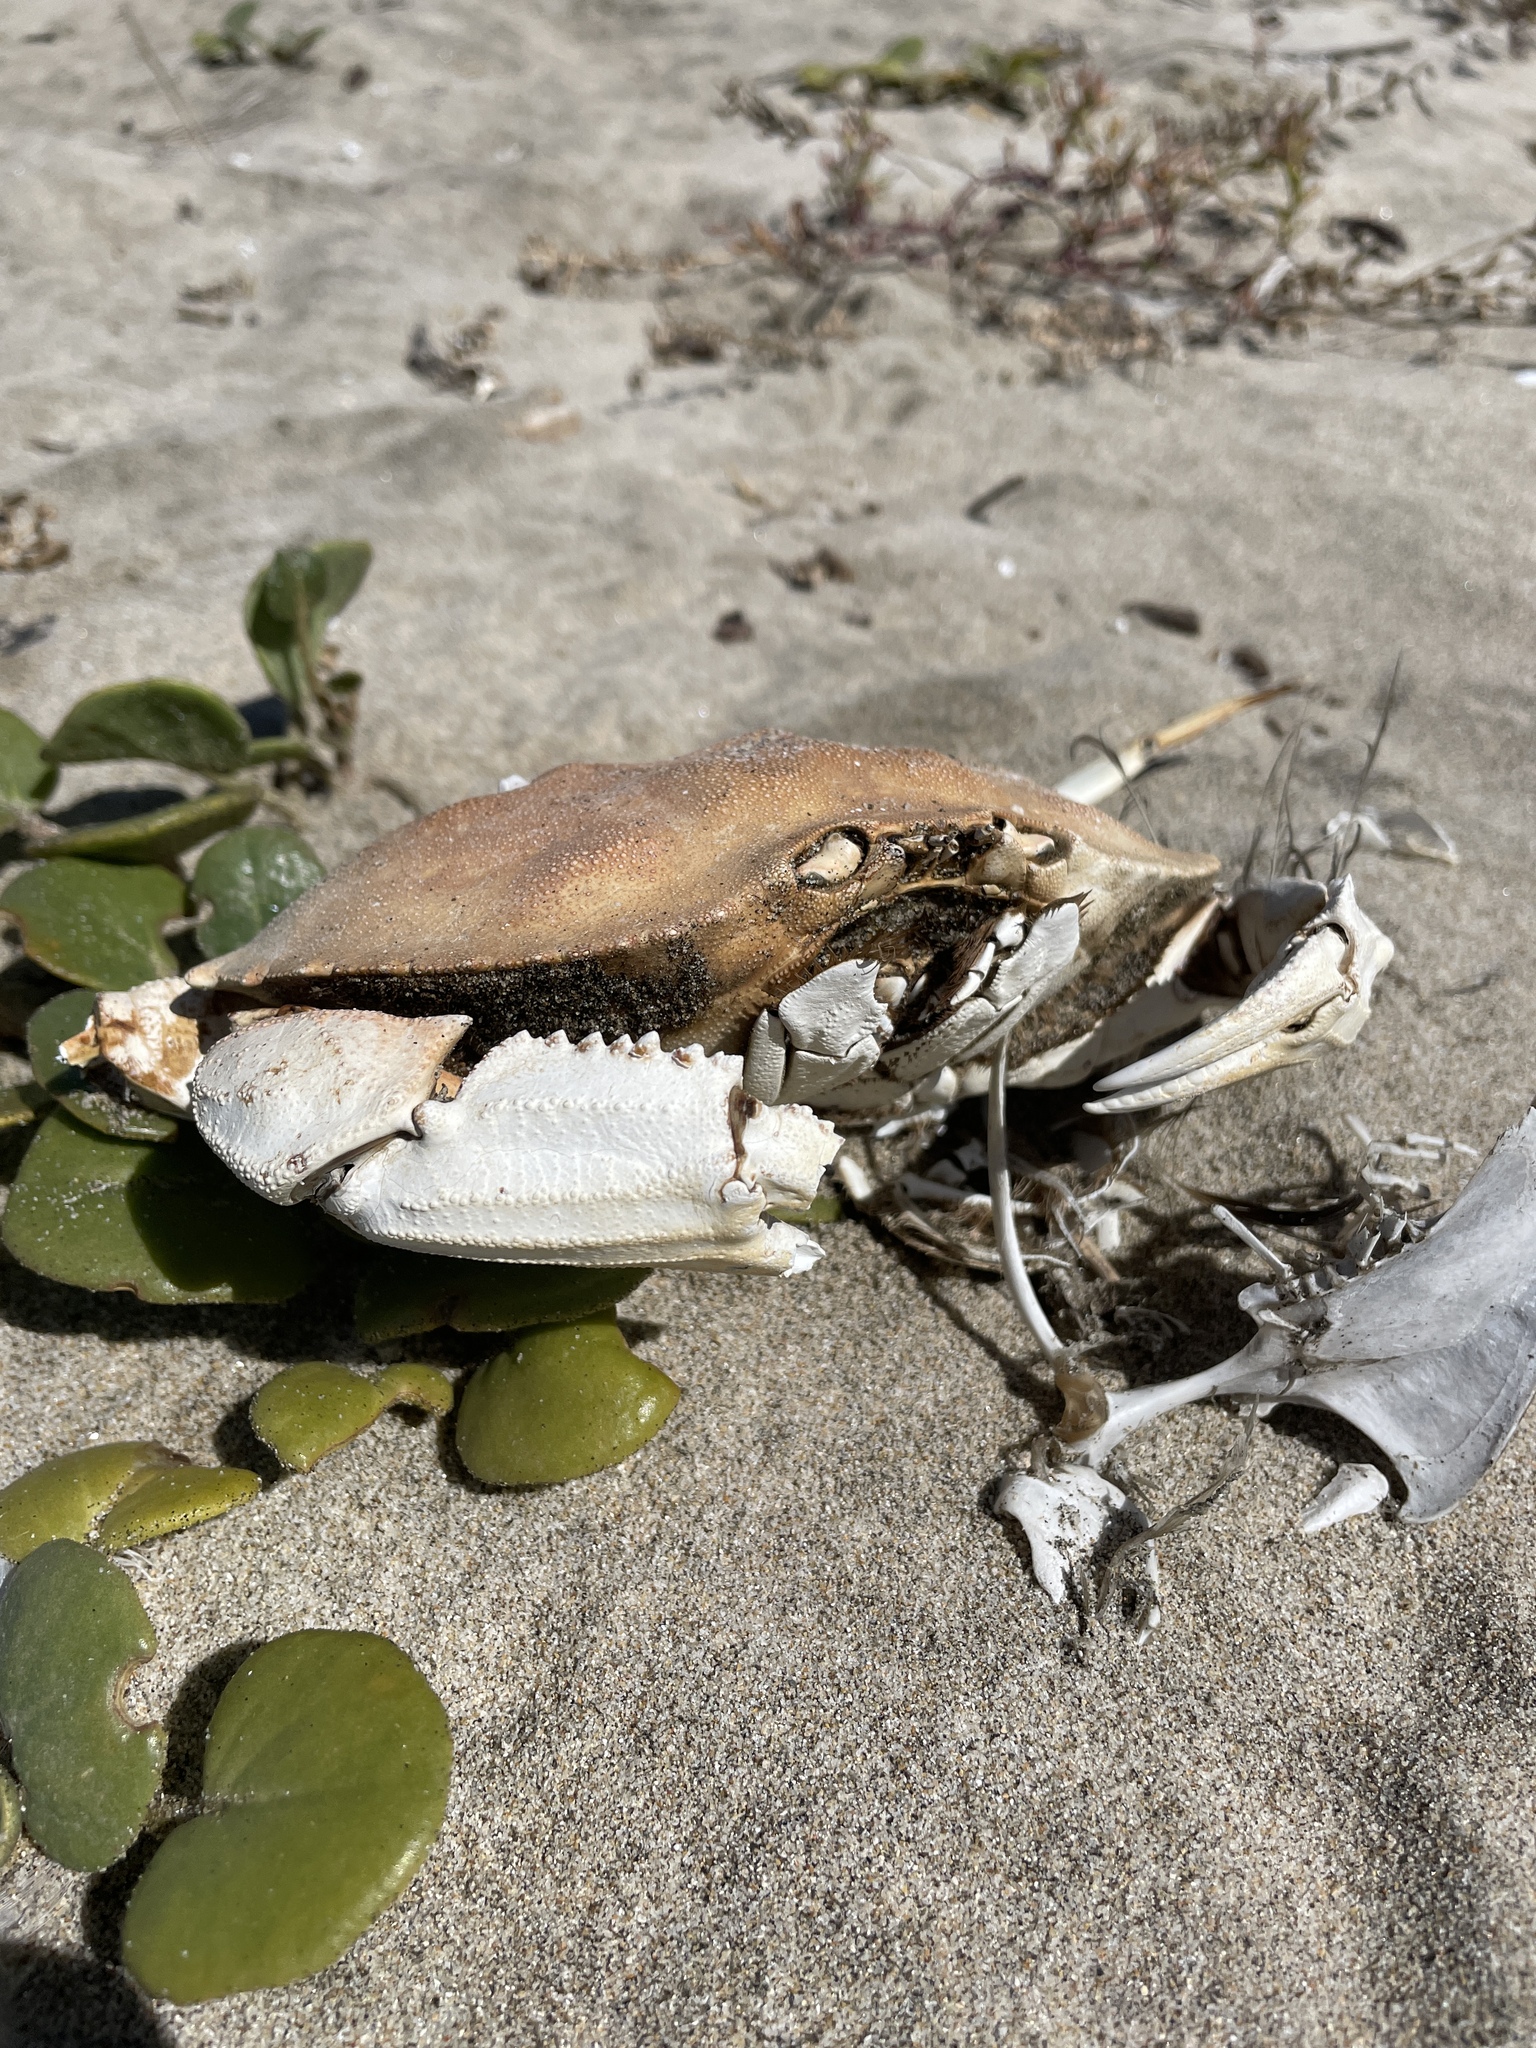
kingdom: Animalia
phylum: Arthropoda
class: Malacostraca
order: Decapoda
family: Cancridae
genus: Metacarcinus
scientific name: Metacarcinus magister
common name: Californian crab
